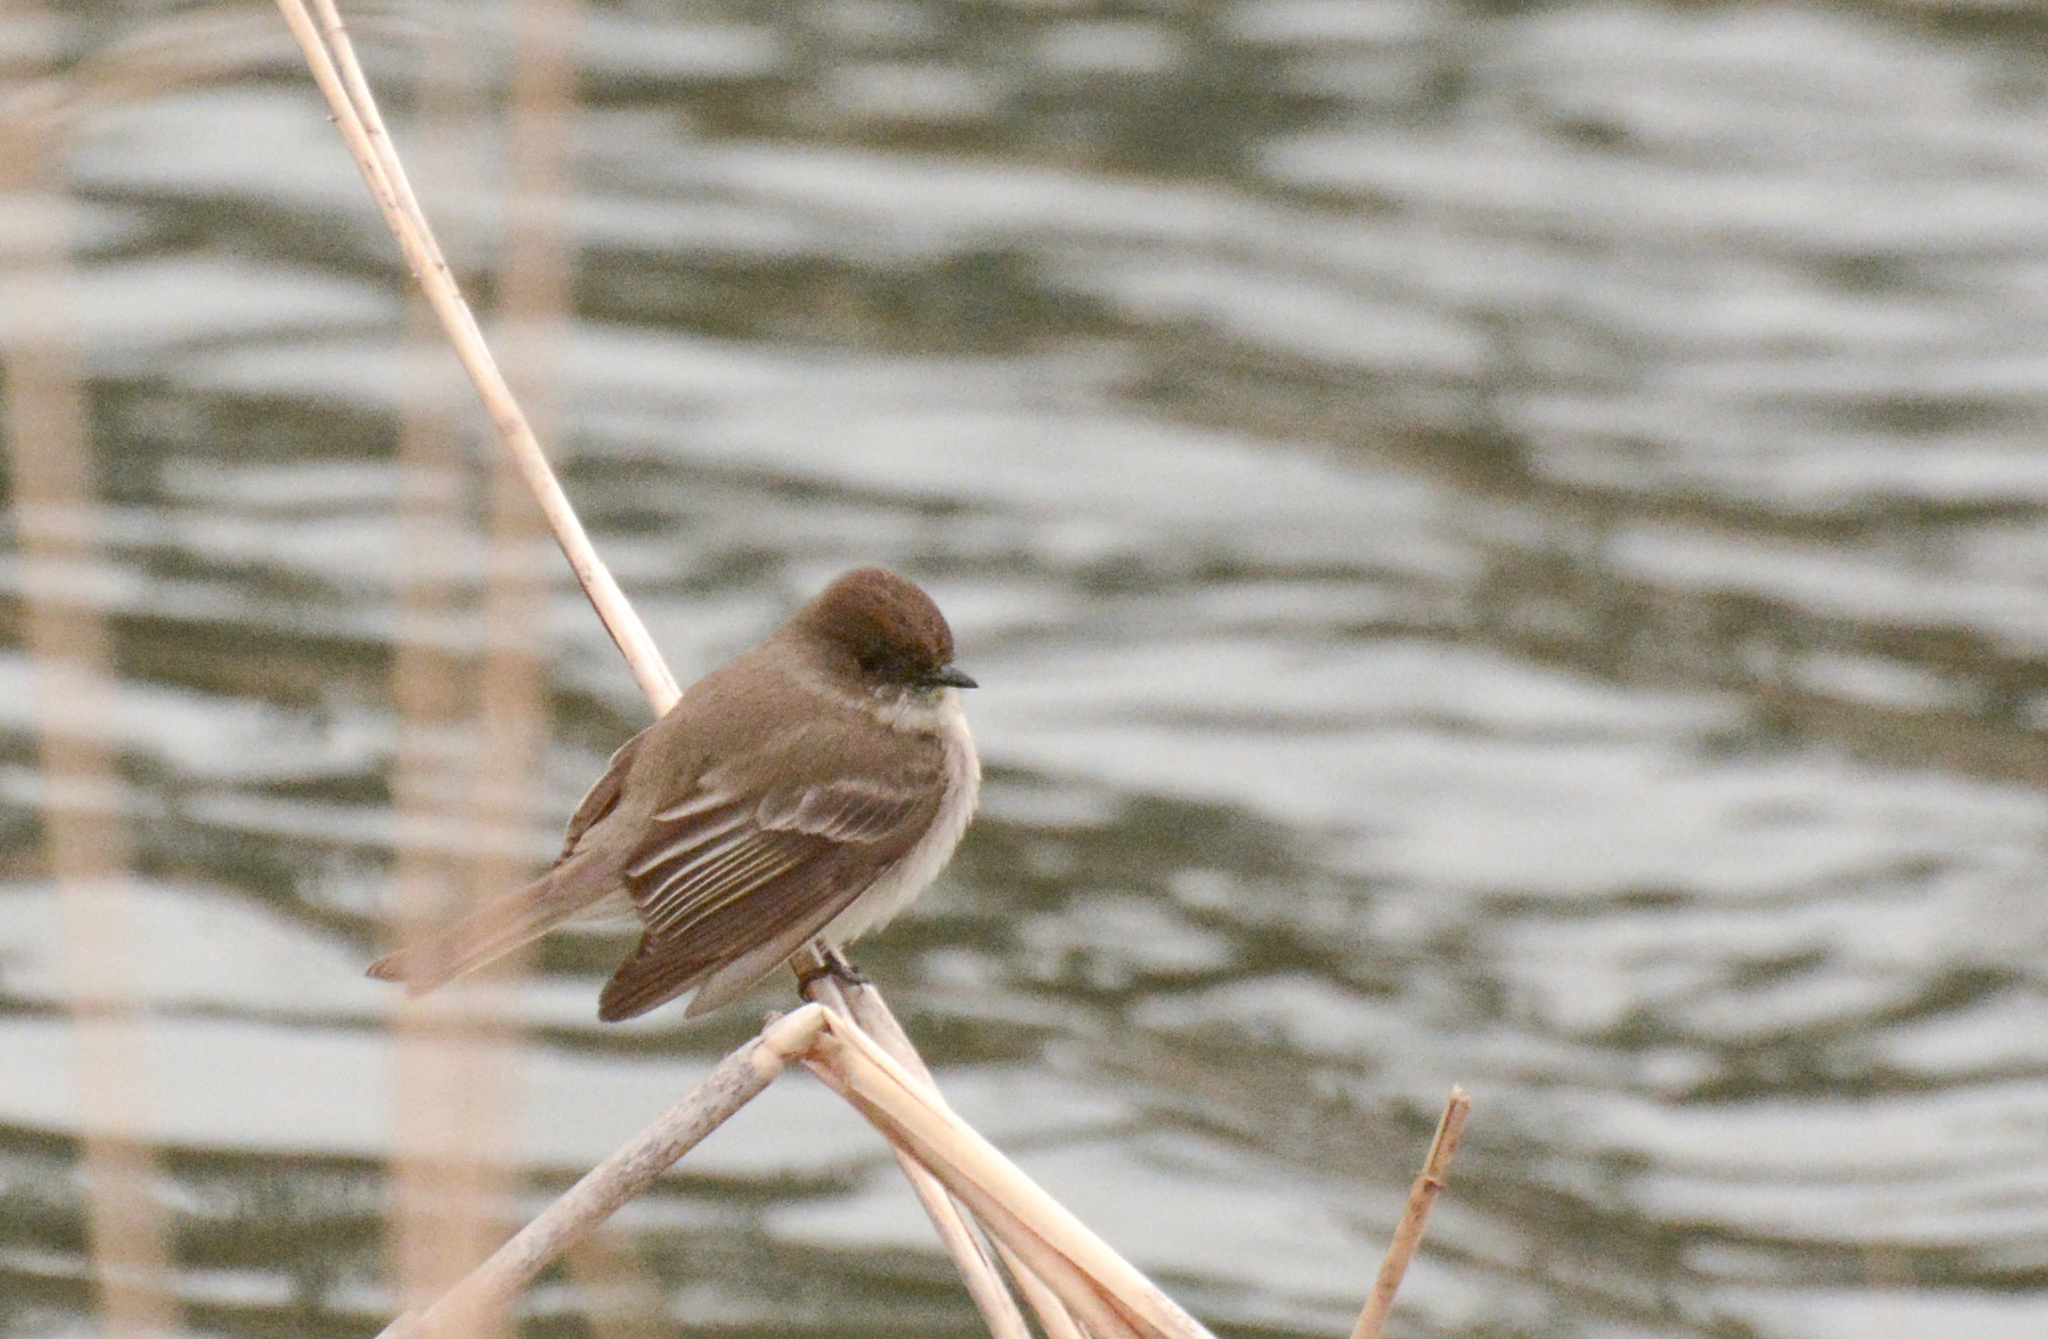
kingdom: Animalia
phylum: Chordata
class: Aves
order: Passeriformes
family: Tyrannidae
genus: Sayornis
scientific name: Sayornis phoebe
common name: Eastern phoebe
